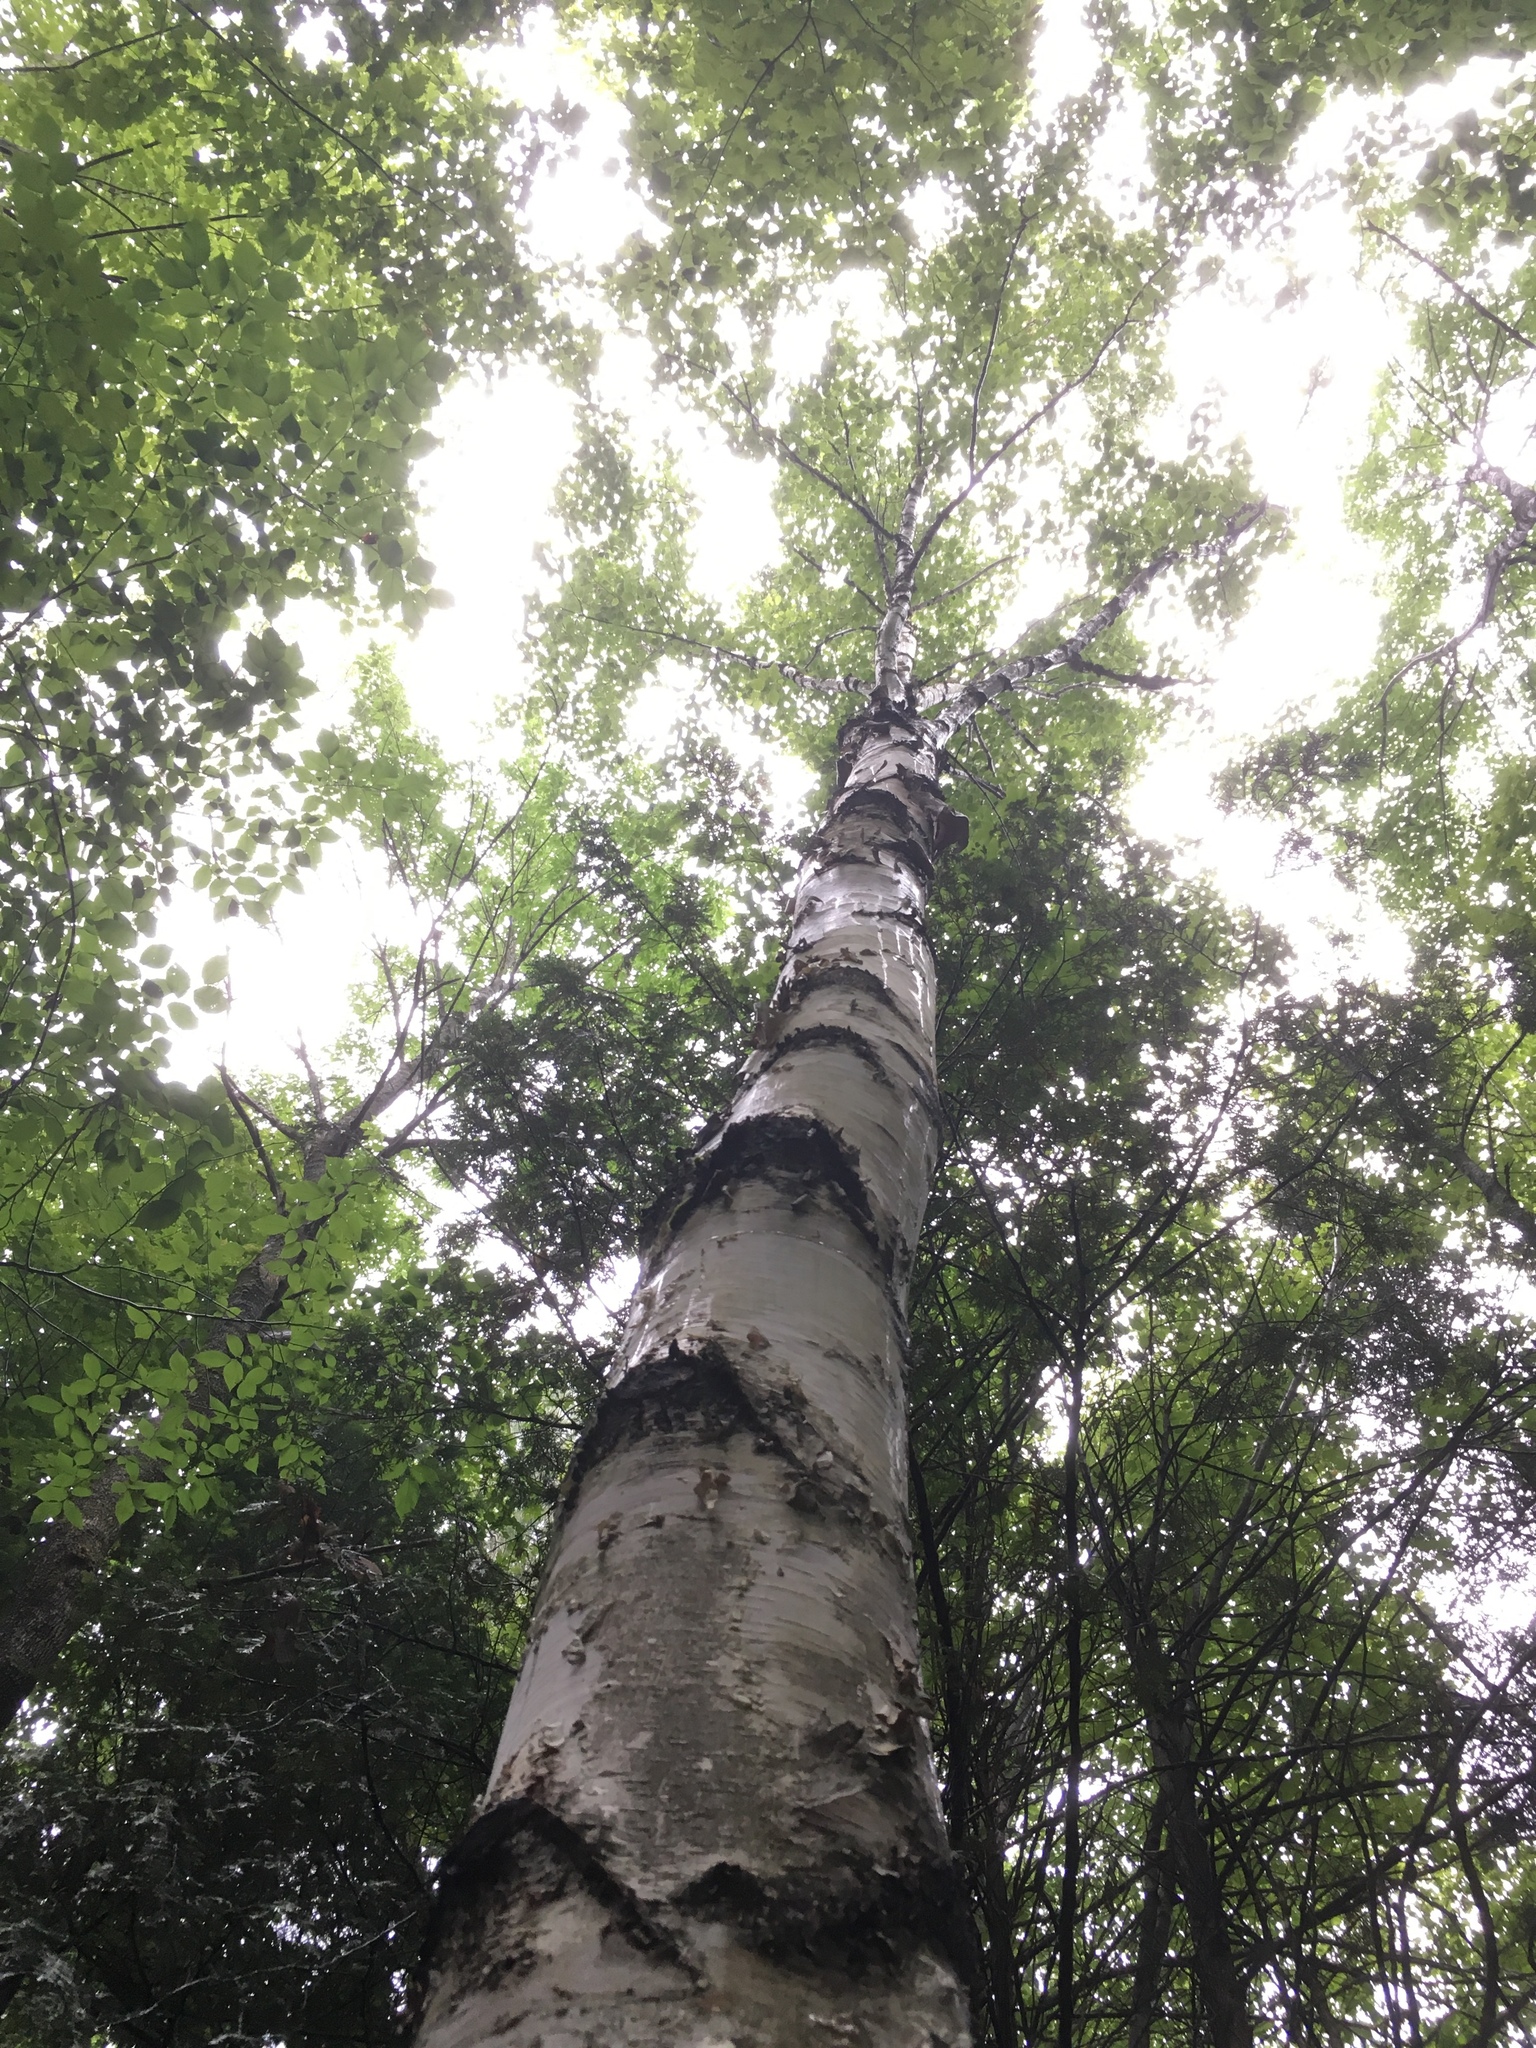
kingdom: Plantae
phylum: Tracheophyta
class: Magnoliopsida
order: Fagales
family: Betulaceae
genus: Betula
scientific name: Betula papyrifera
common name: Paper birch
